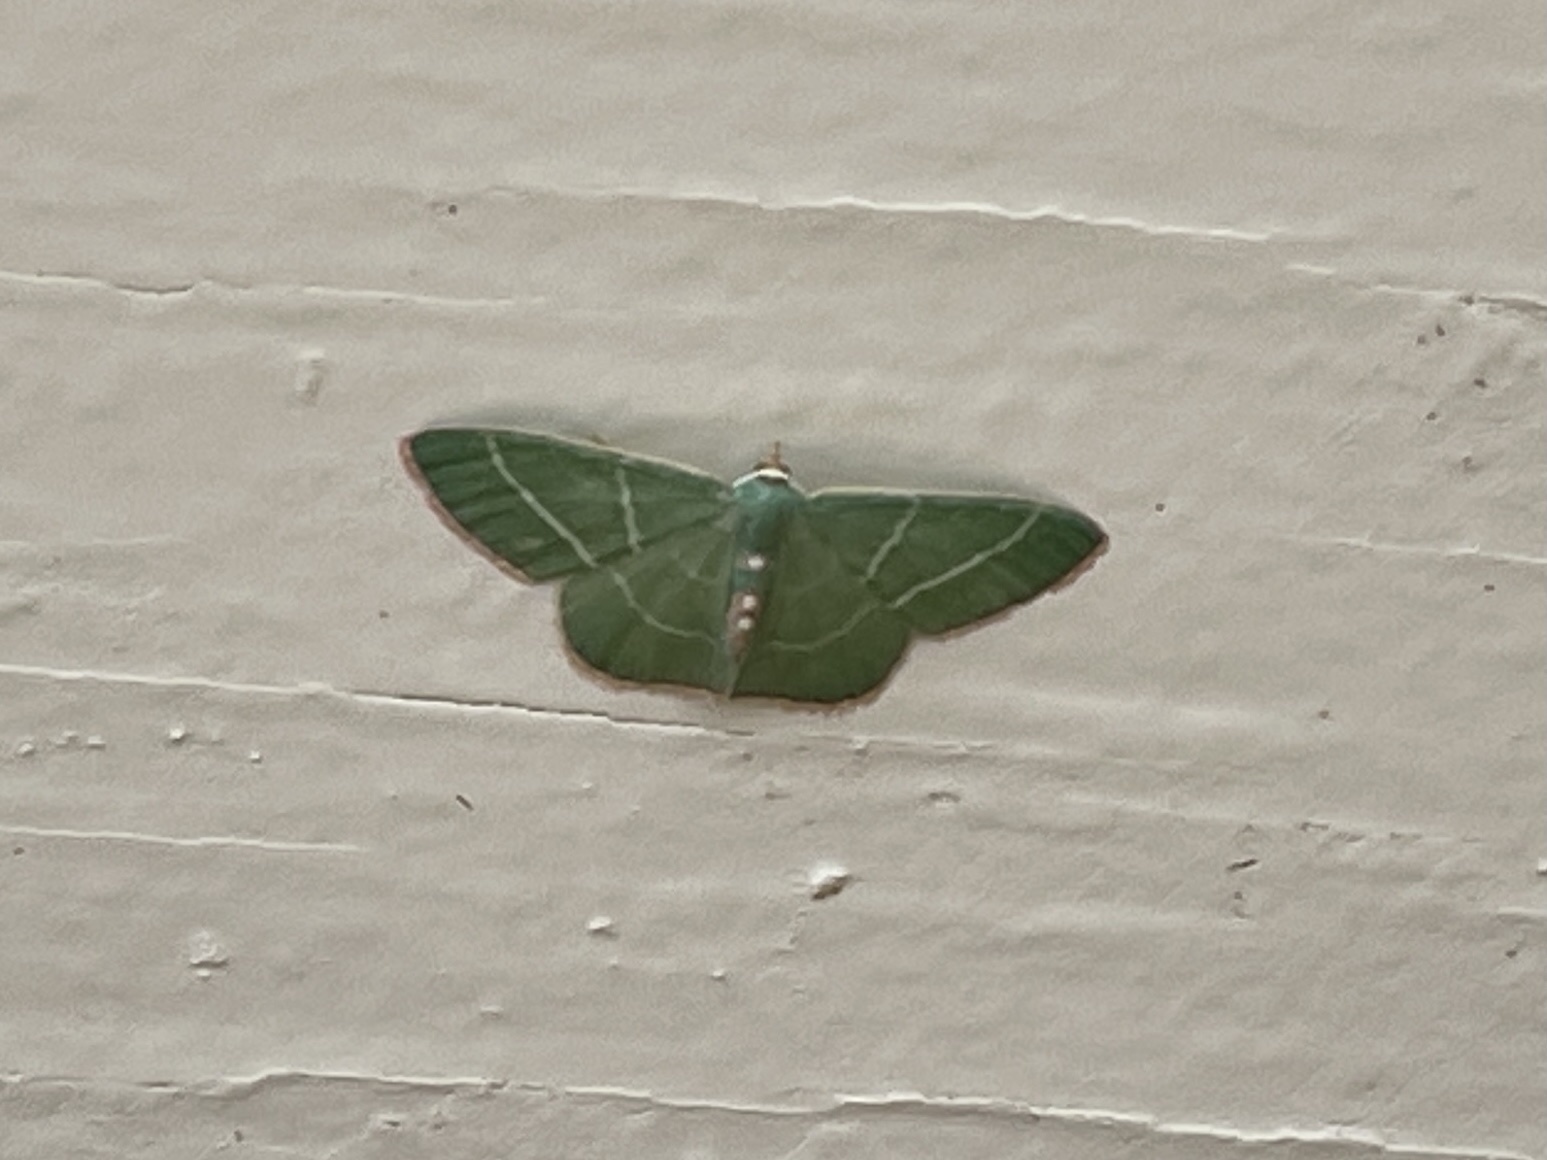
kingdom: Animalia
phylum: Arthropoda
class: Insecta
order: Lepidoptera
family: Geometridae
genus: Nemoria
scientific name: Nemoria obliqua
